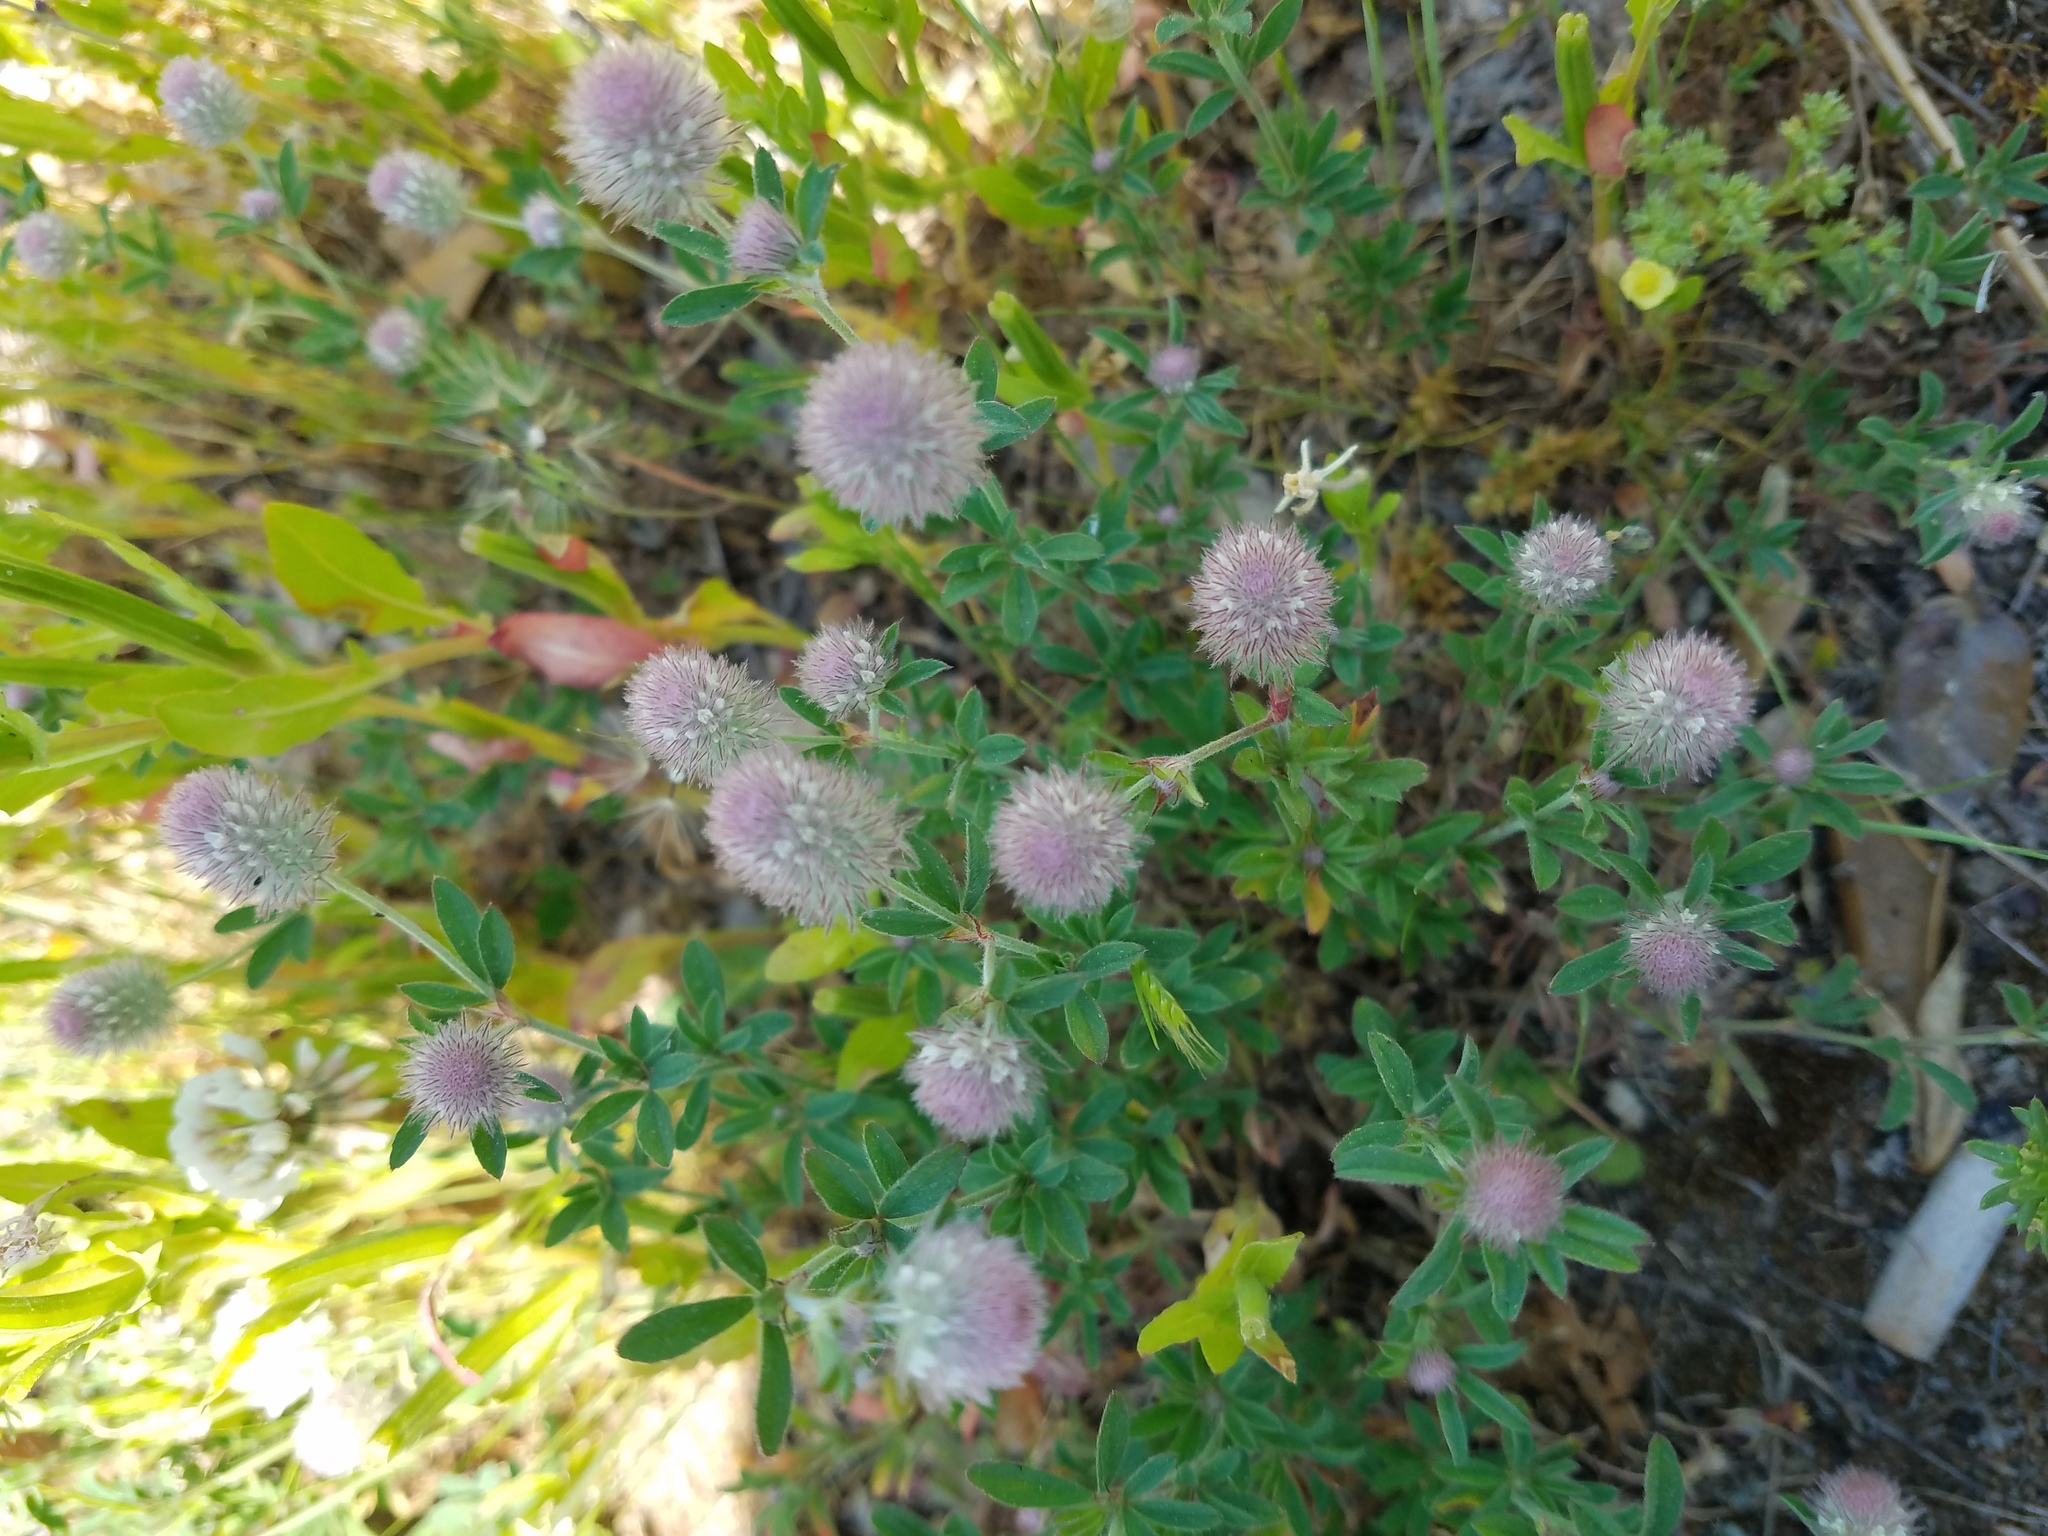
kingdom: Plantae
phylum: Tracheophyta
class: Magnoliopsida
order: Fabales
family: Fabaceae
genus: Trifolium
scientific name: Trifolium arvense
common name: Hare's-foot clover
